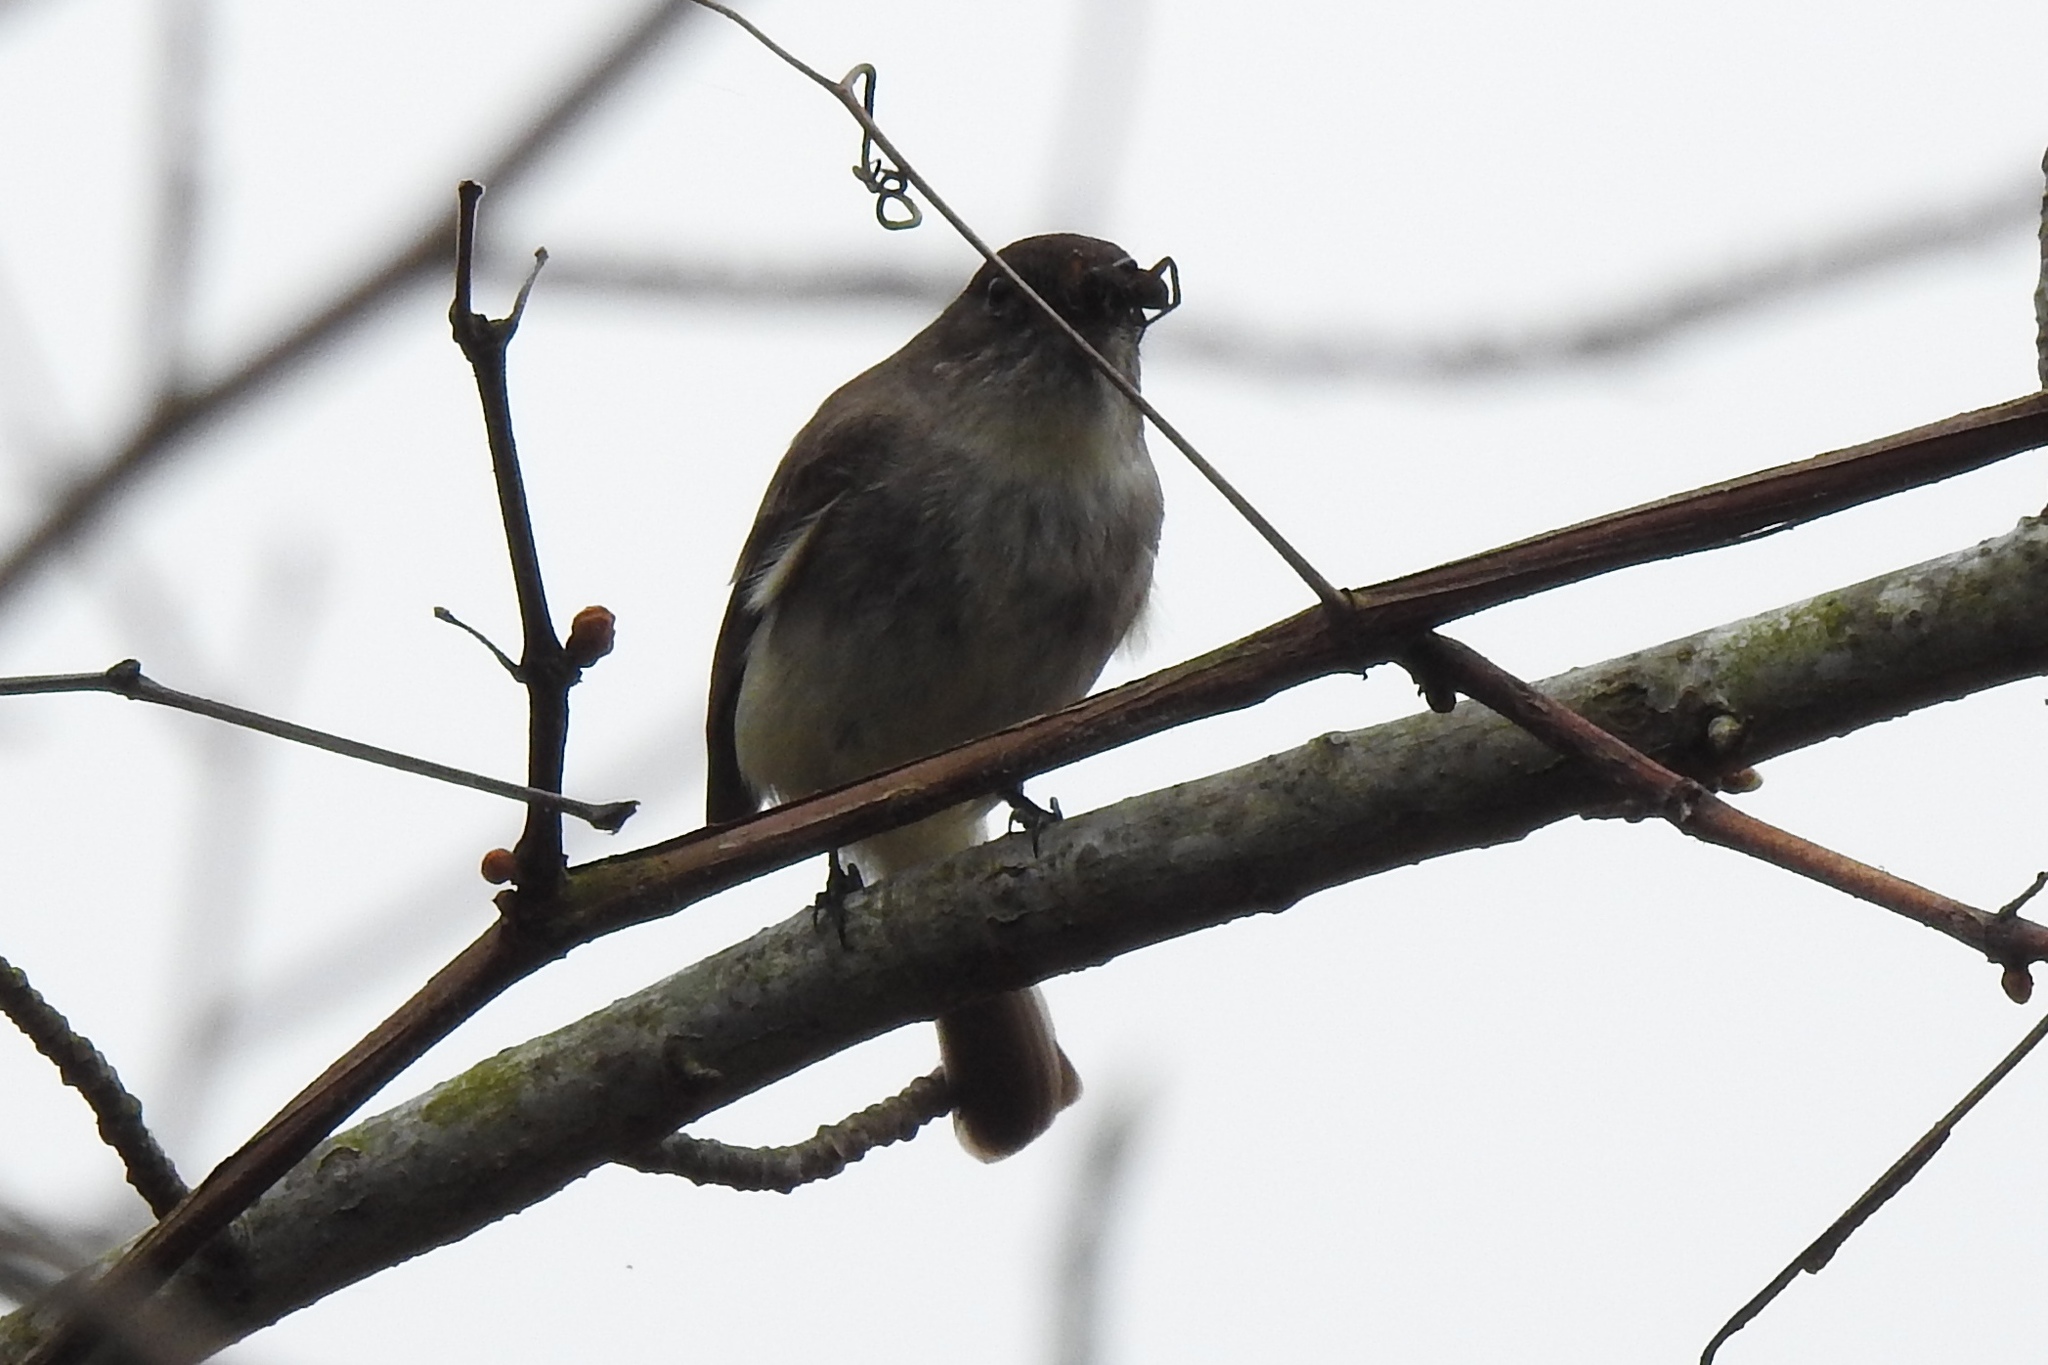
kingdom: Animalia
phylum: Chordata
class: Aves
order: Passeriformes
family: Tyrannidae
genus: Sayornis
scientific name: Sayornis phoebe
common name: Eastern phoebe
